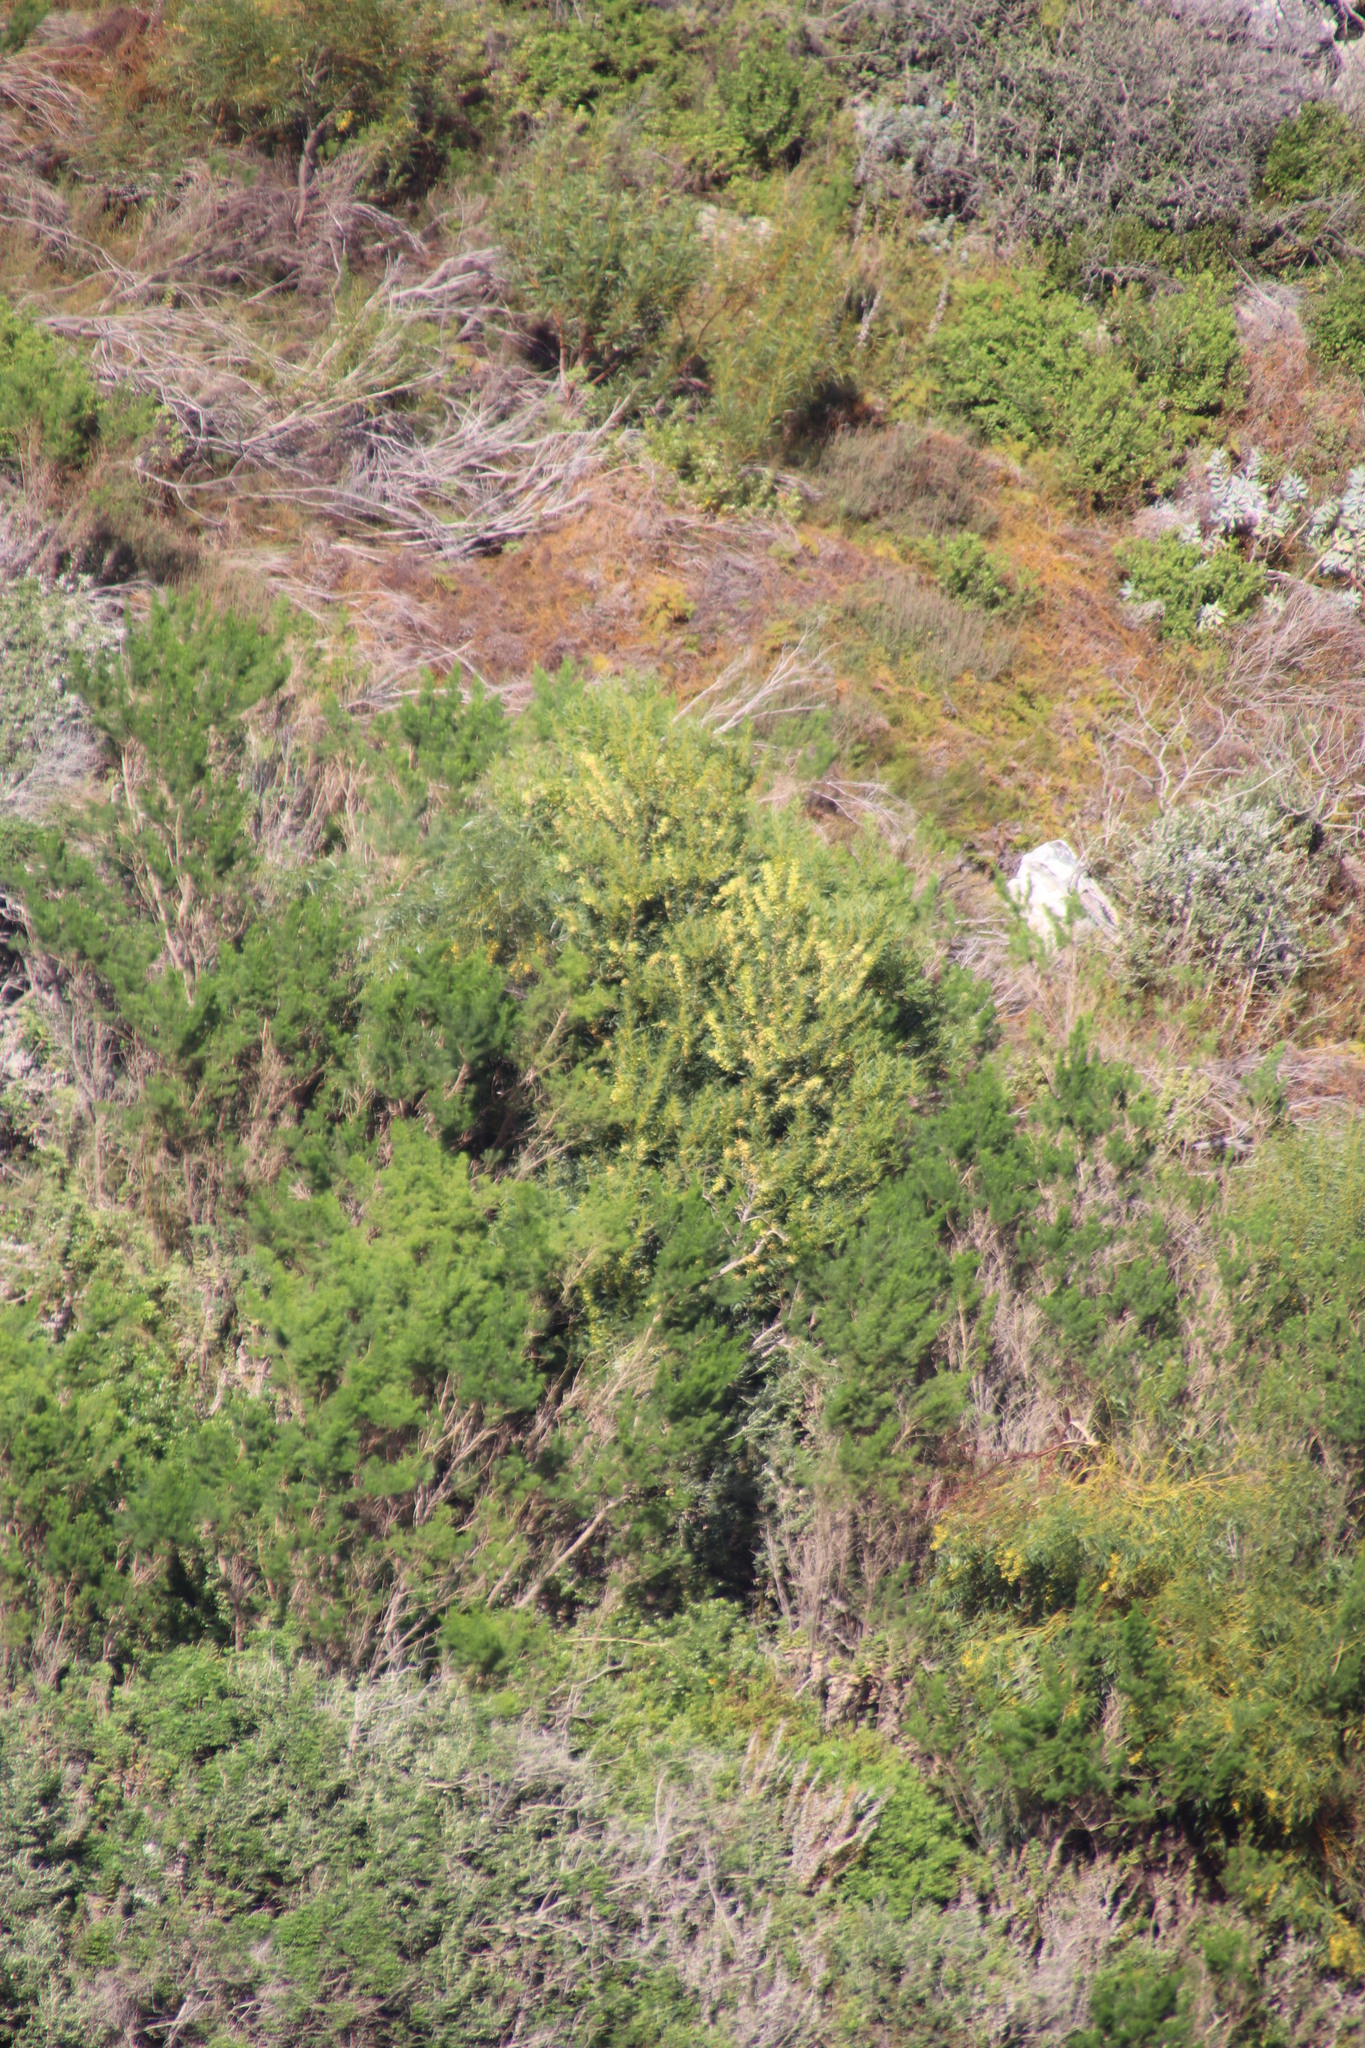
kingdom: Plantae
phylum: Tracheophyta
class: Magnoliopsida
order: Fabales
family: Fabaceae
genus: Acacia
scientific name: Acacia longifolia
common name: Sydney golden wattle
